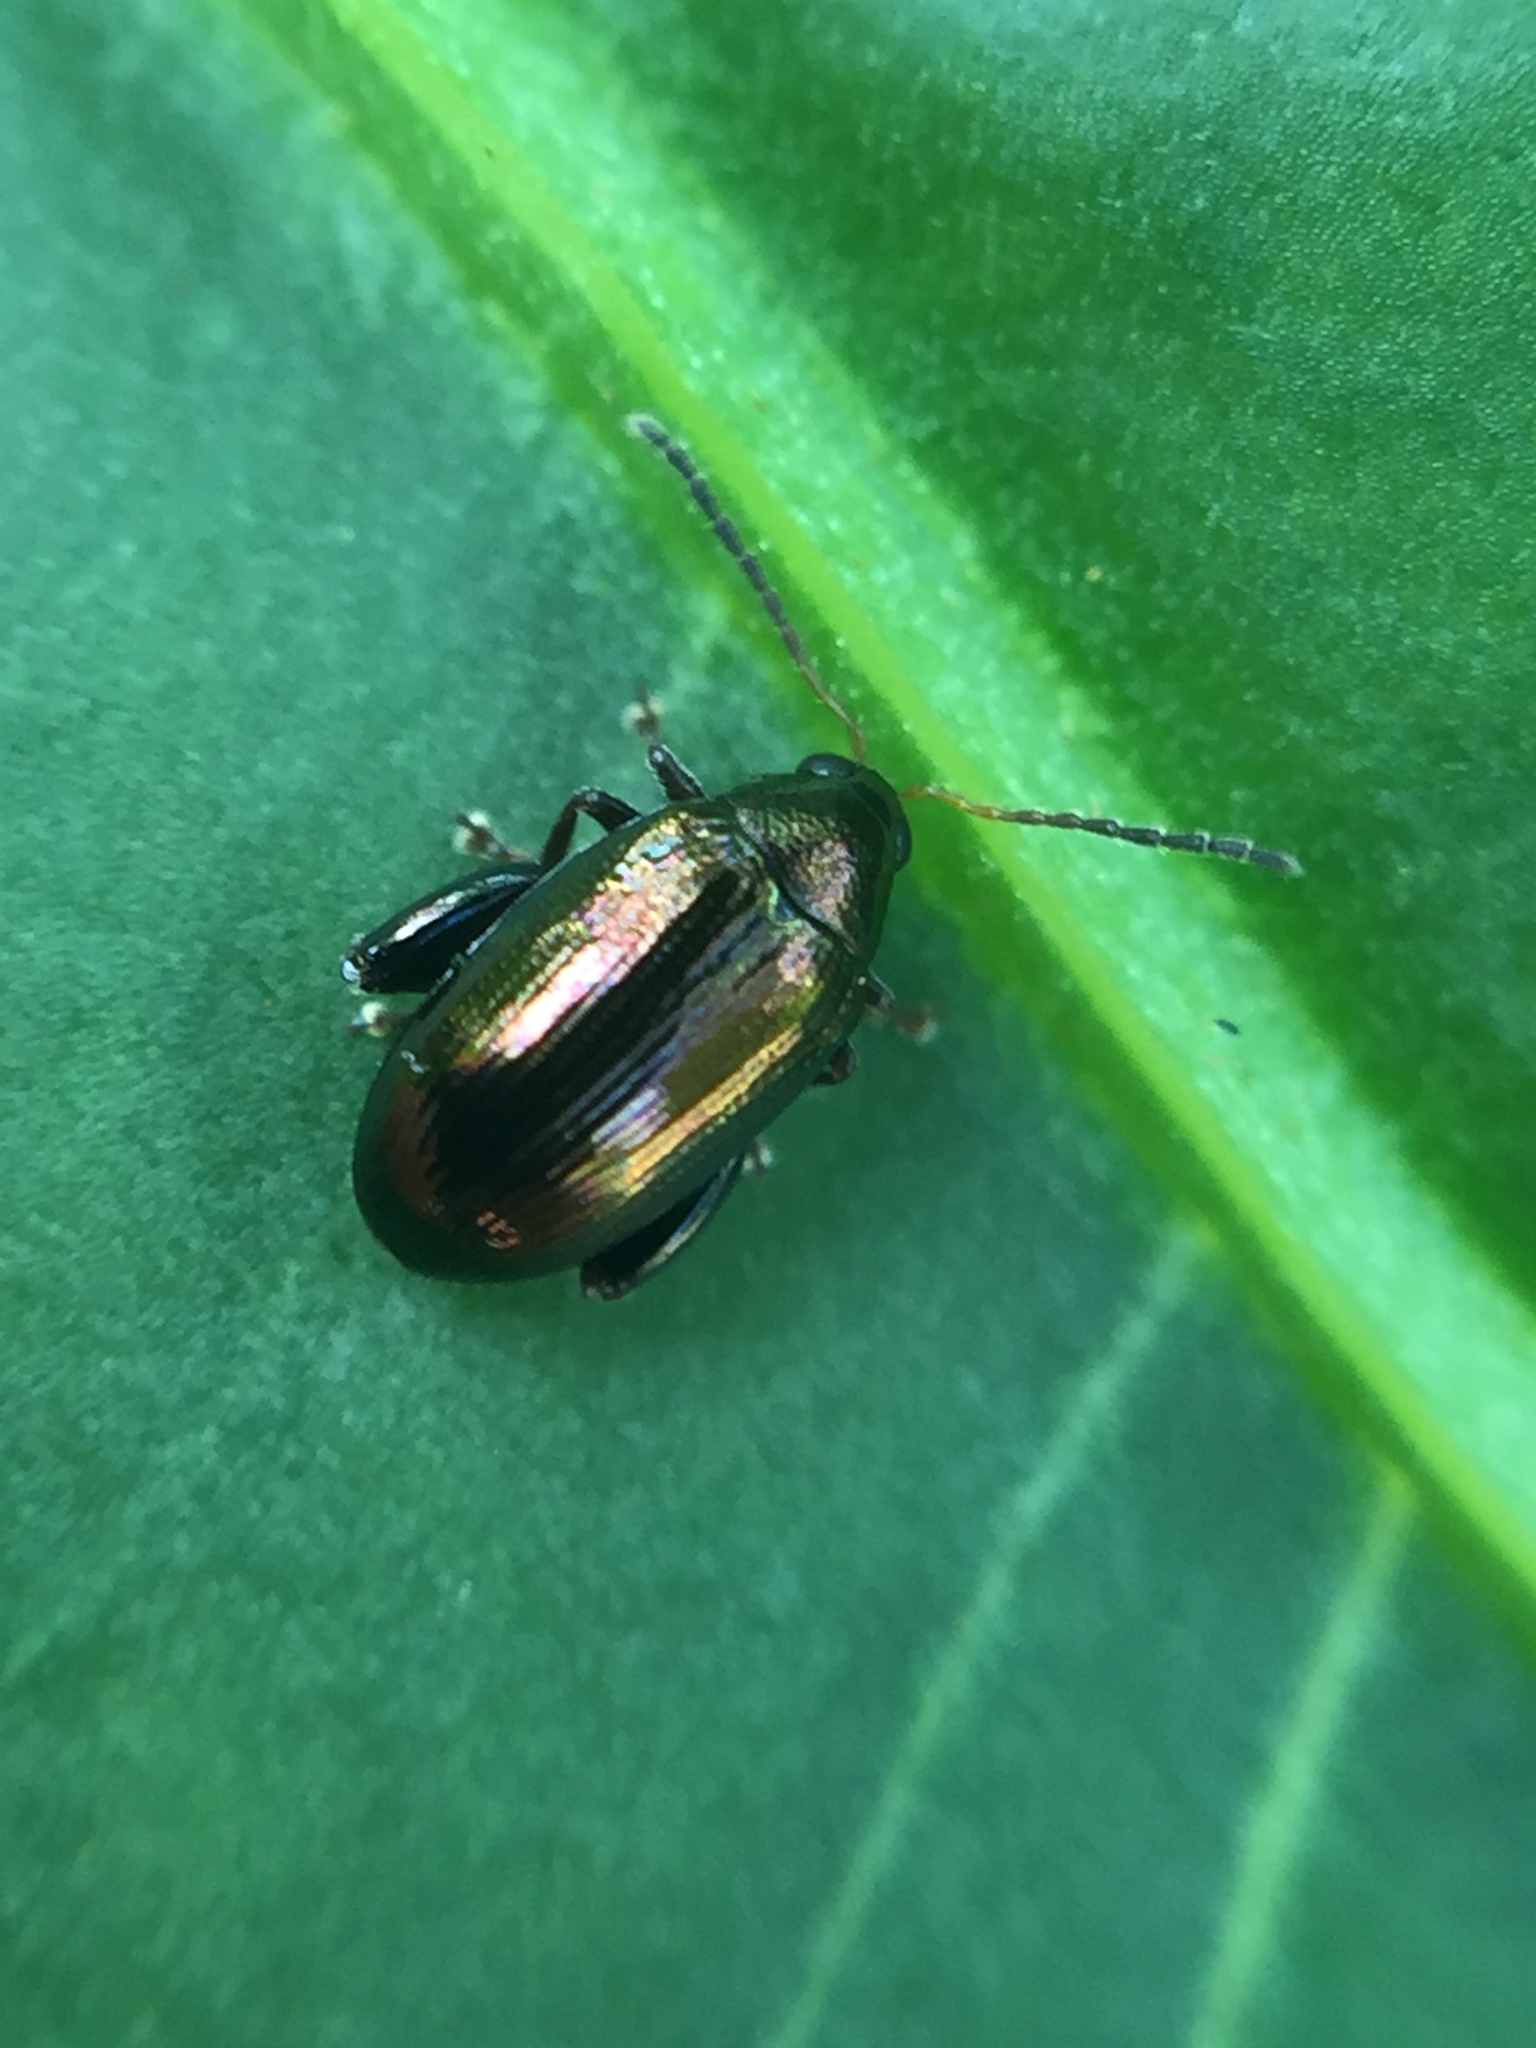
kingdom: Animalia
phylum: Arthropoda
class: Insecta
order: Coleoptera
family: Chrysomelidae
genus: Psylliodes
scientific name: Psylliodes brettinghami
